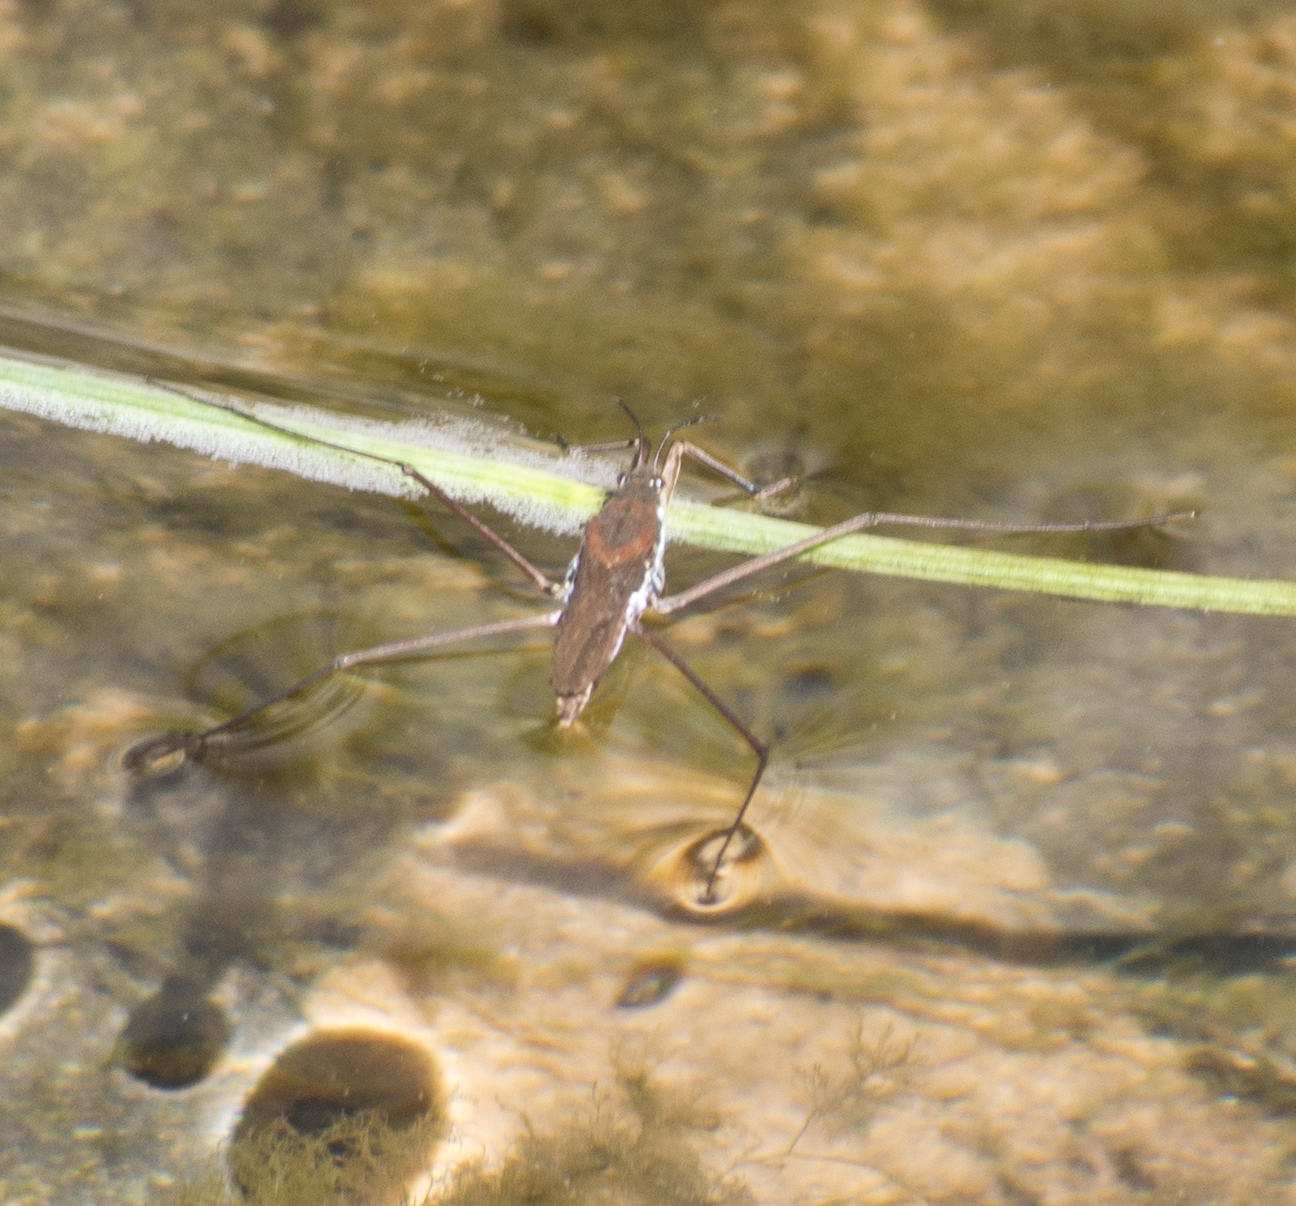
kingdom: Animalia
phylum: Arthropoda
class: Insecta
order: Hemiptera
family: Gerridae
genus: Aquarius
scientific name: Aquarius remigis
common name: Common water strider
